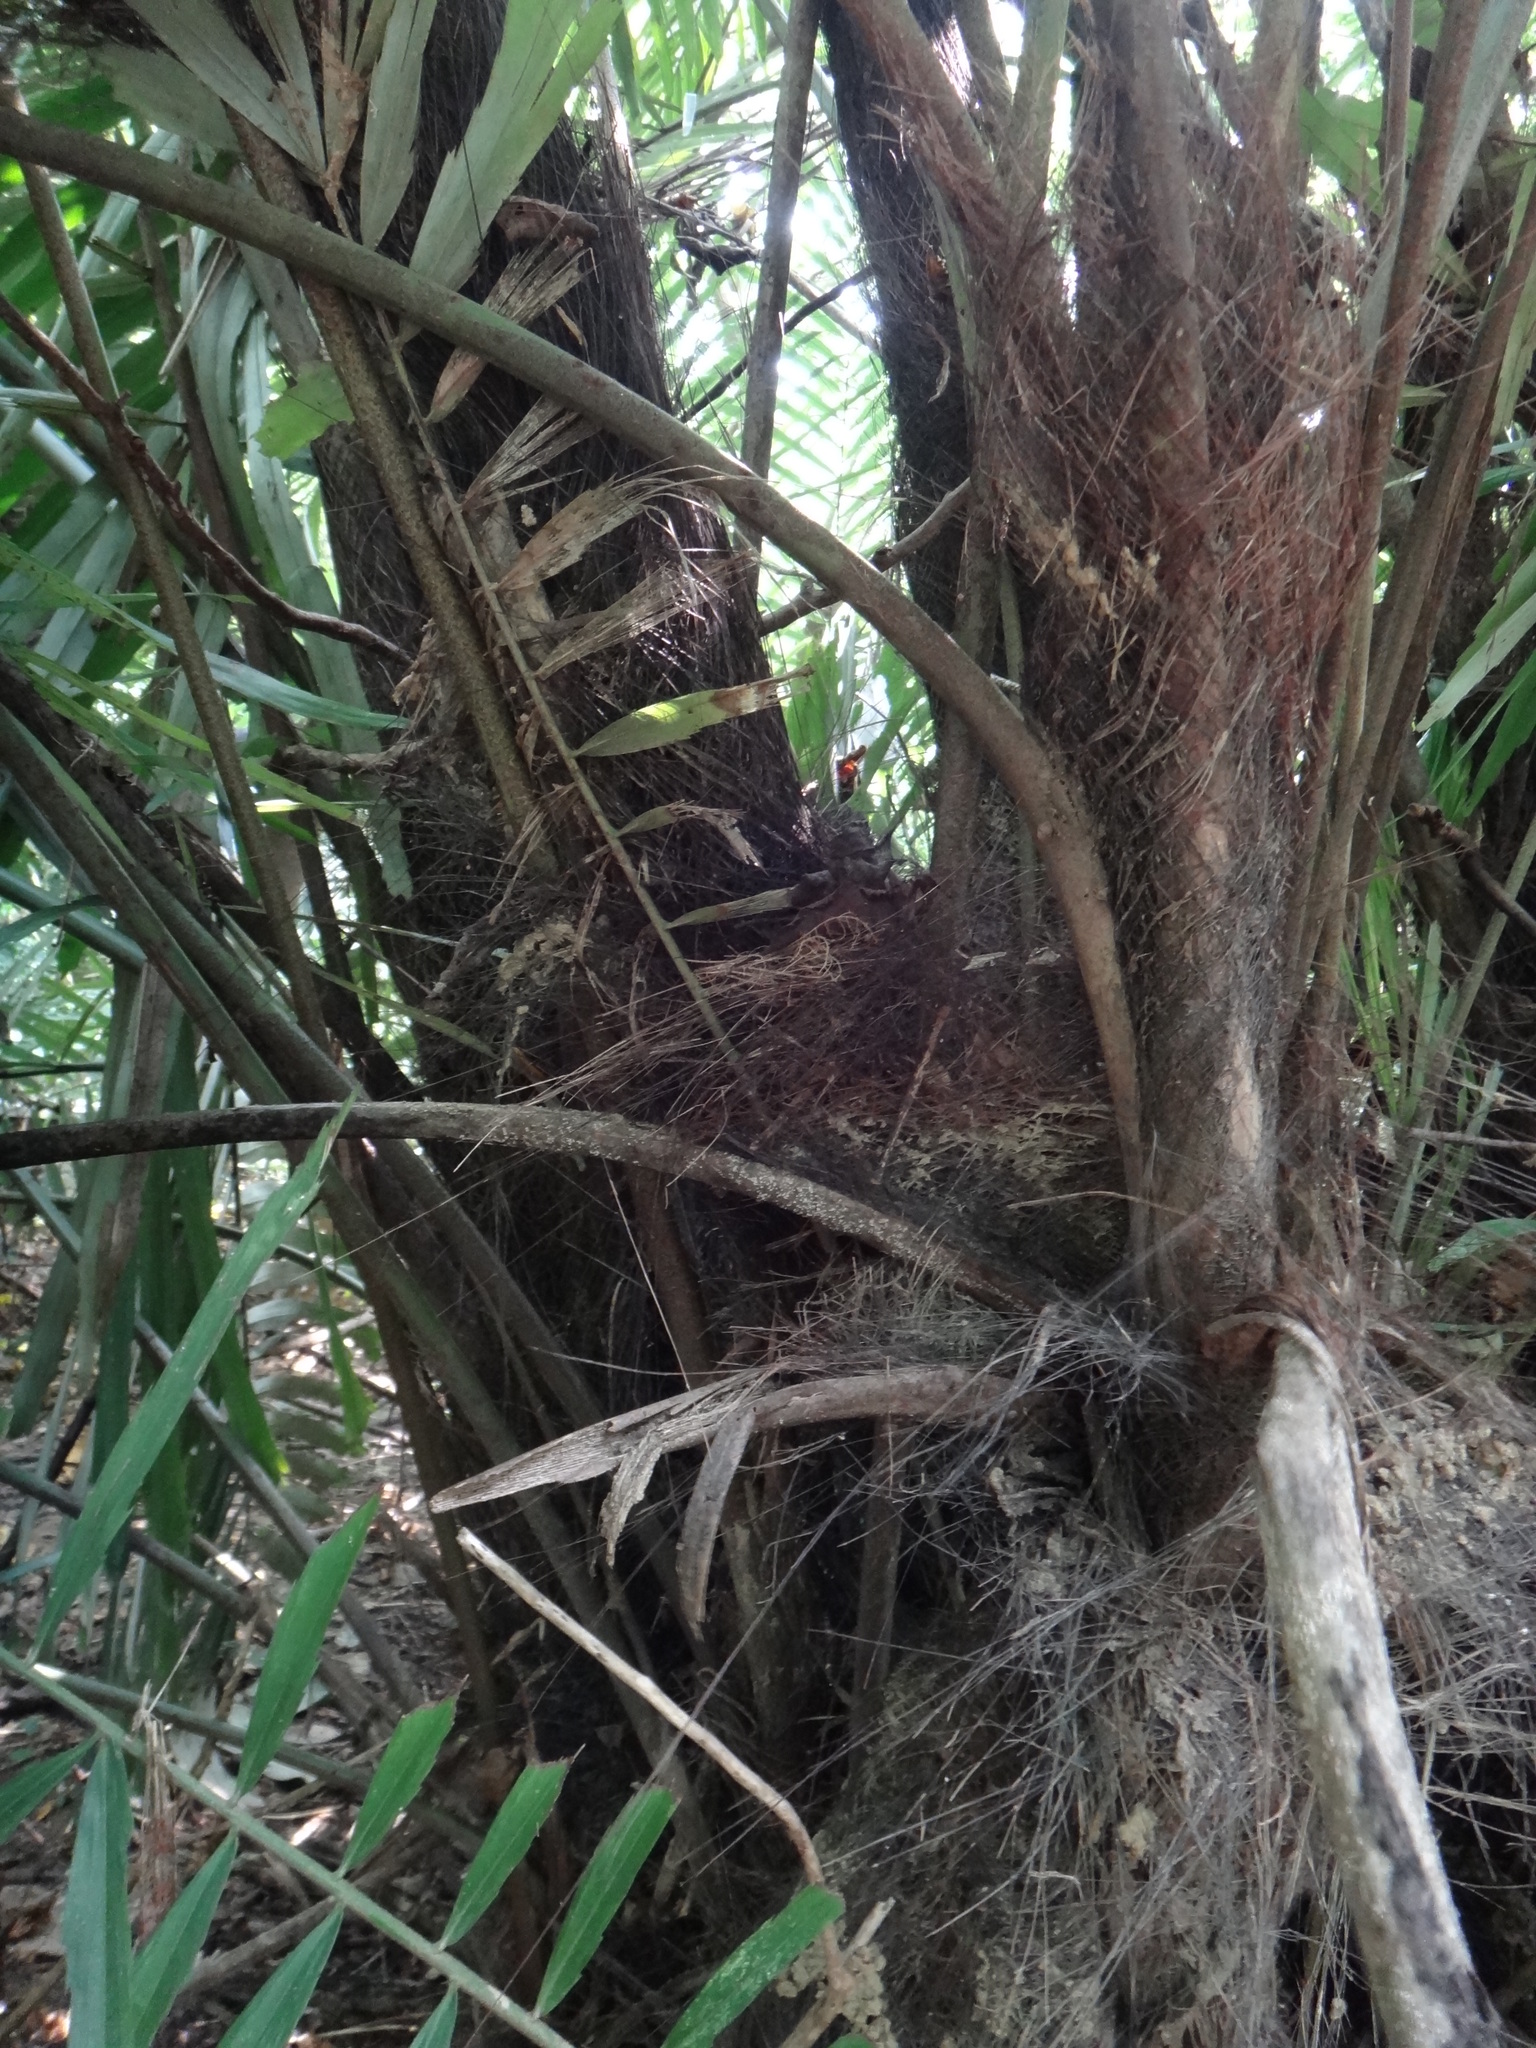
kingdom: Plantae
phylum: Tracheophyta
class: Liliopsida
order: Arecales
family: Arecaceae
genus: Arenga
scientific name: Arenga engleri
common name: Formosan sugar palm
